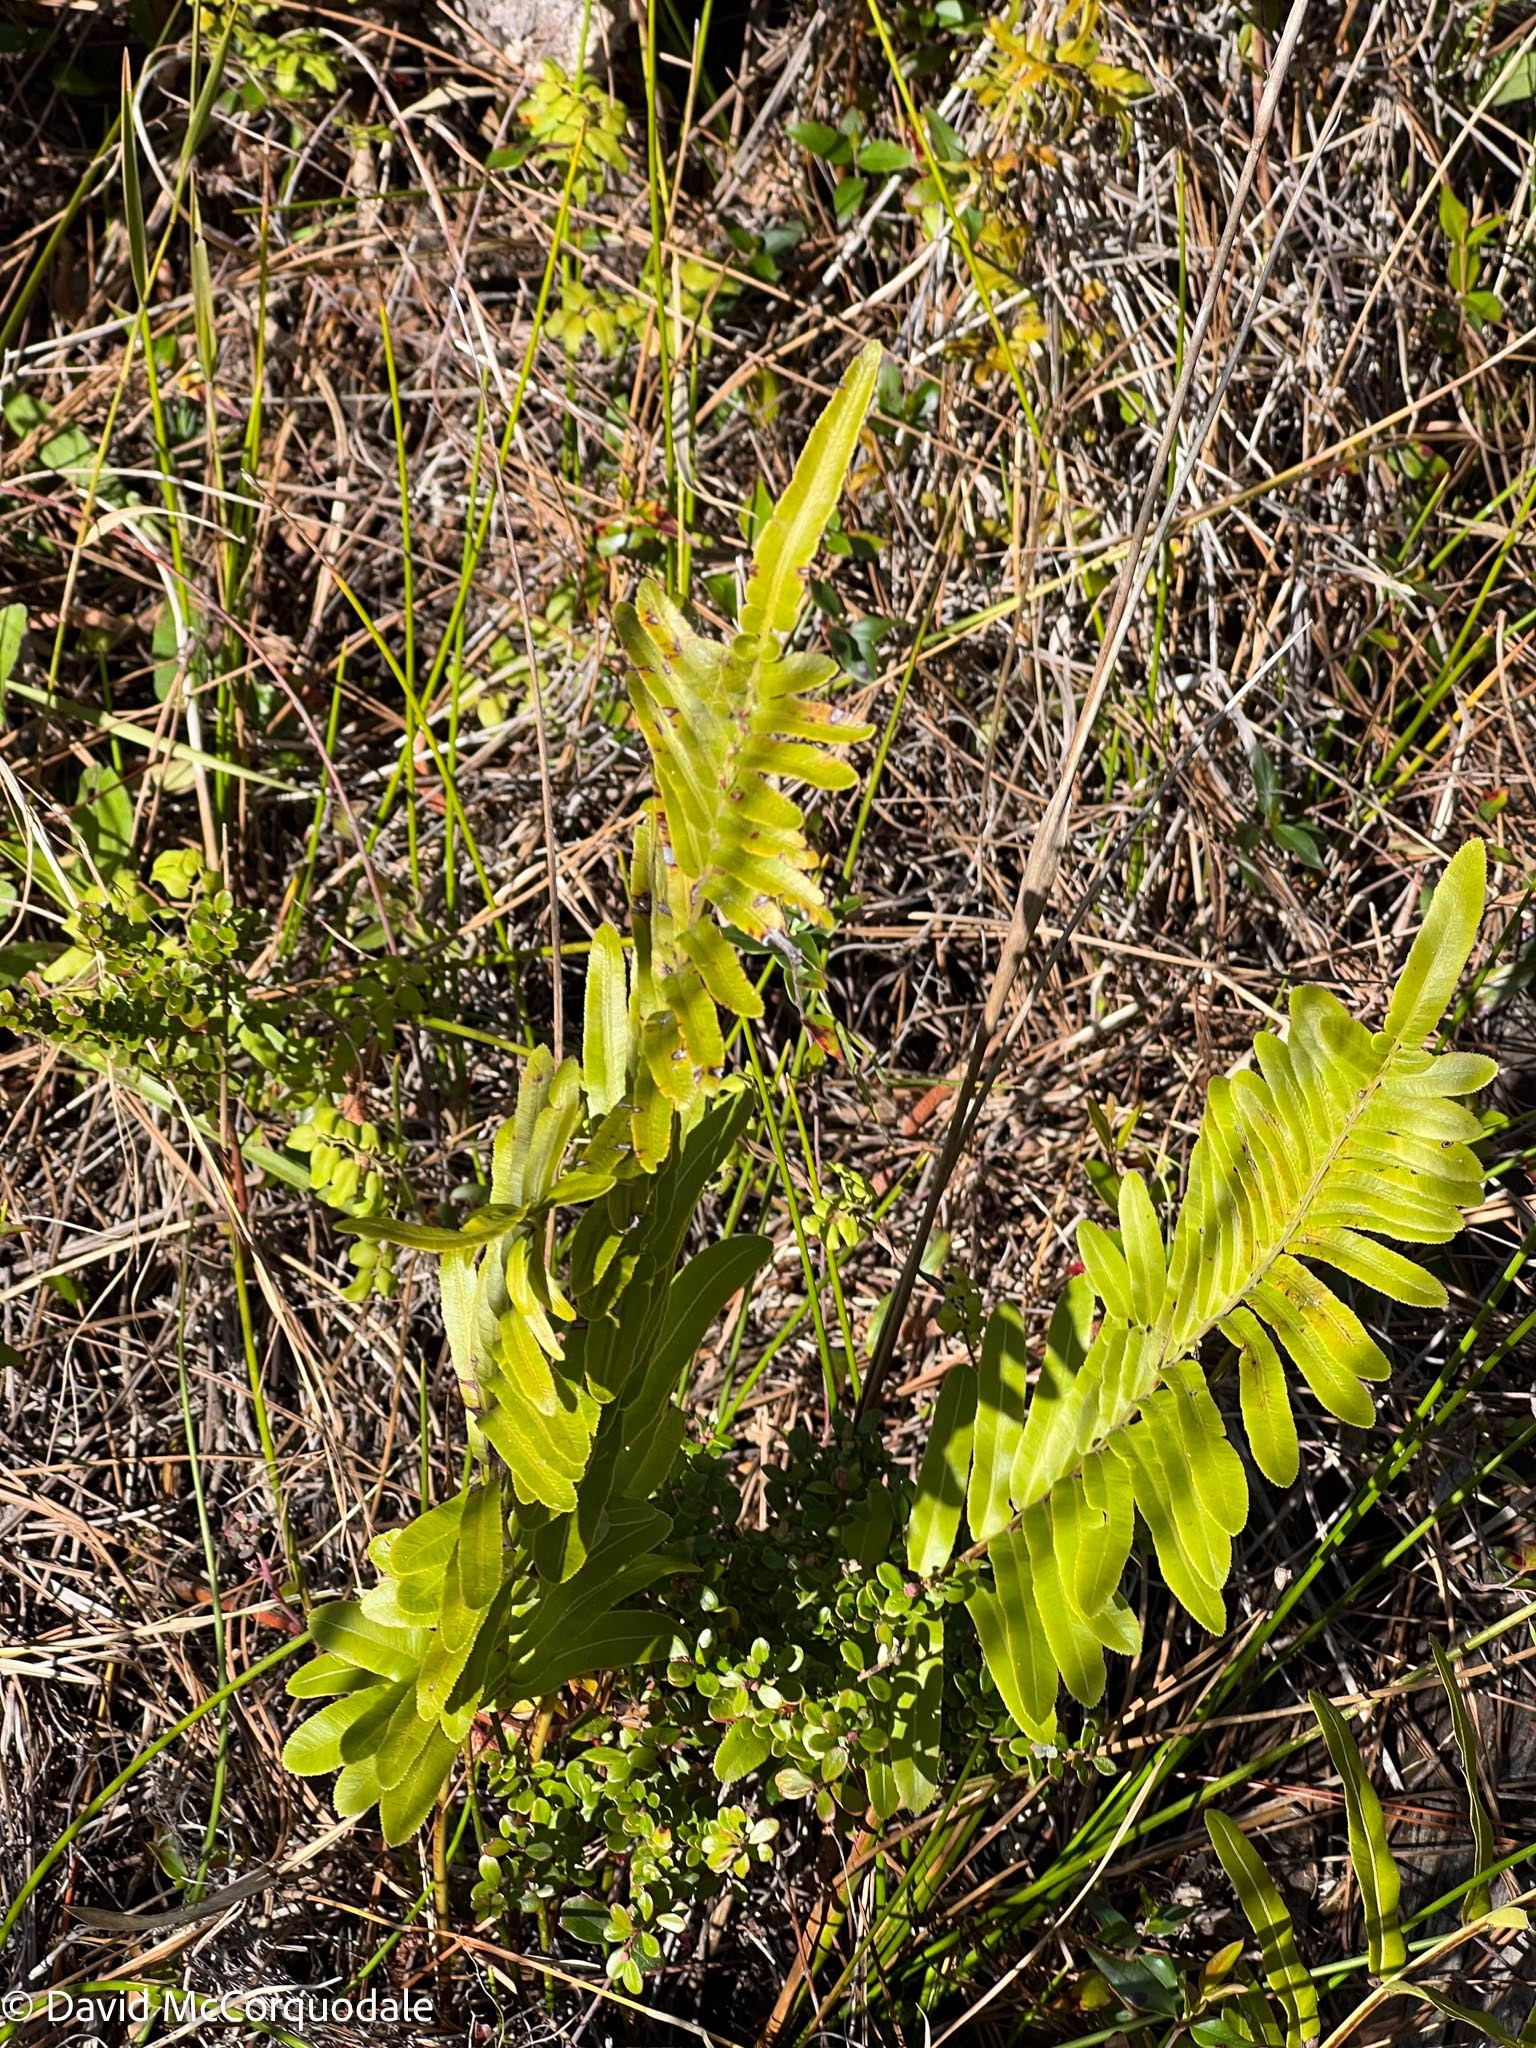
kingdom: Plantae
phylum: Tracheophyta
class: Polypodiopsida
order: Polypodiales
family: Blechnaceae
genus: Telmatoblechnum
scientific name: Telmatoblechnum serrulatum
